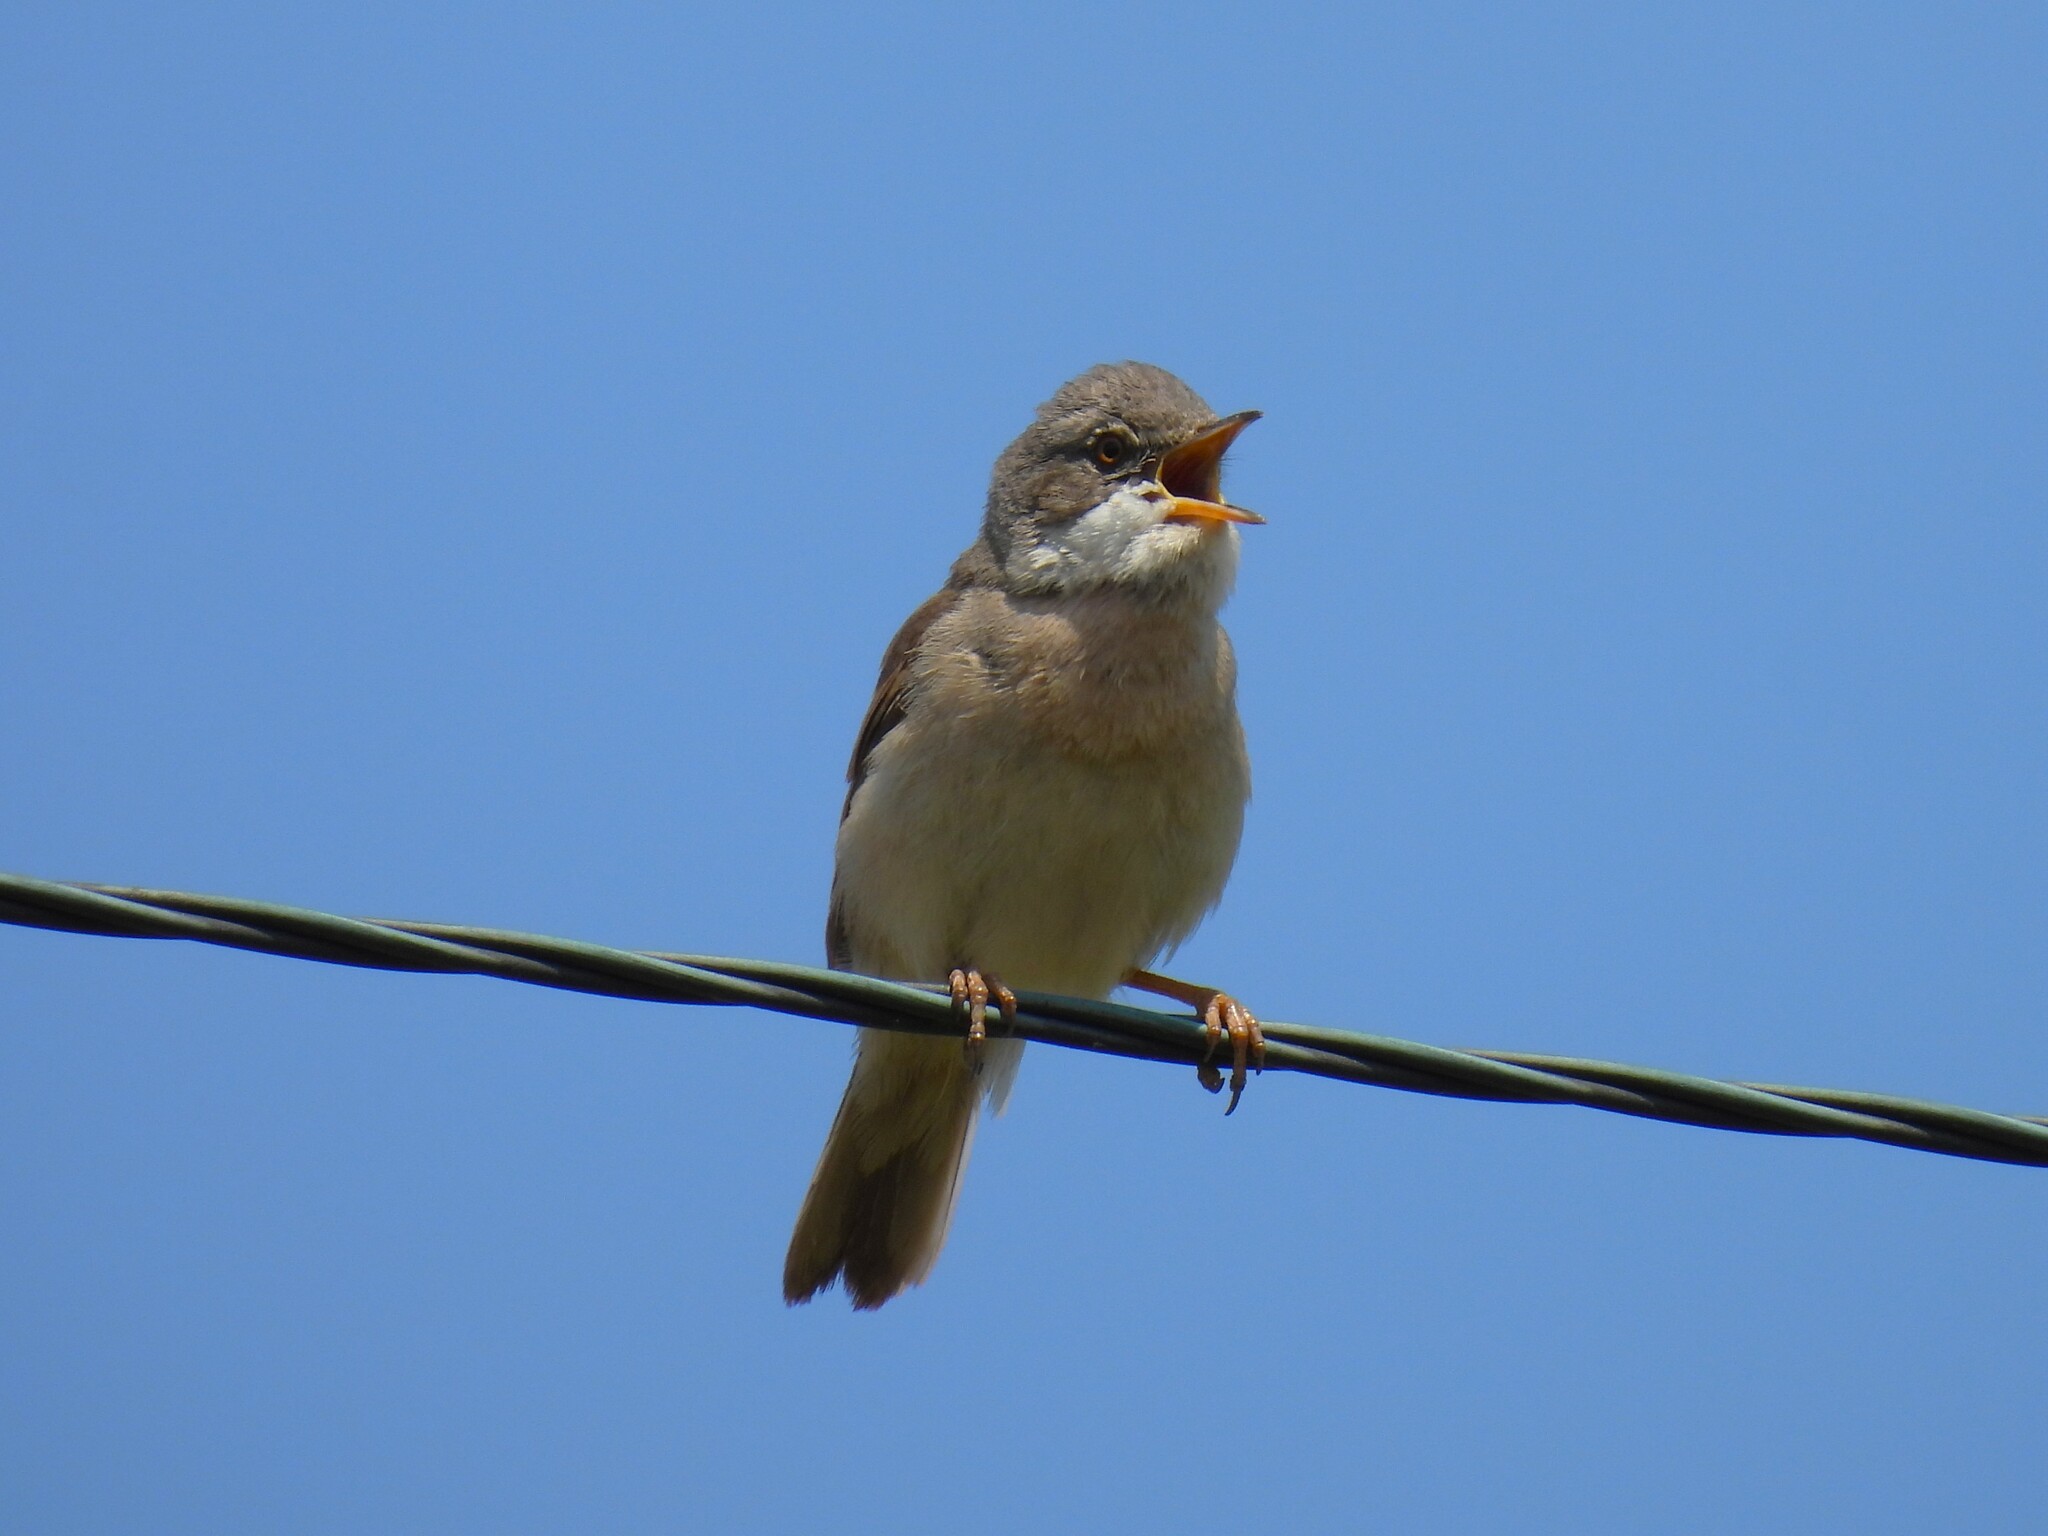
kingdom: Animalia
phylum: Chordata
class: Aves
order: Passeriformes
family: Sylviidae
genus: Sylvia
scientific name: Sylvia communis
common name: Common whitethroat
